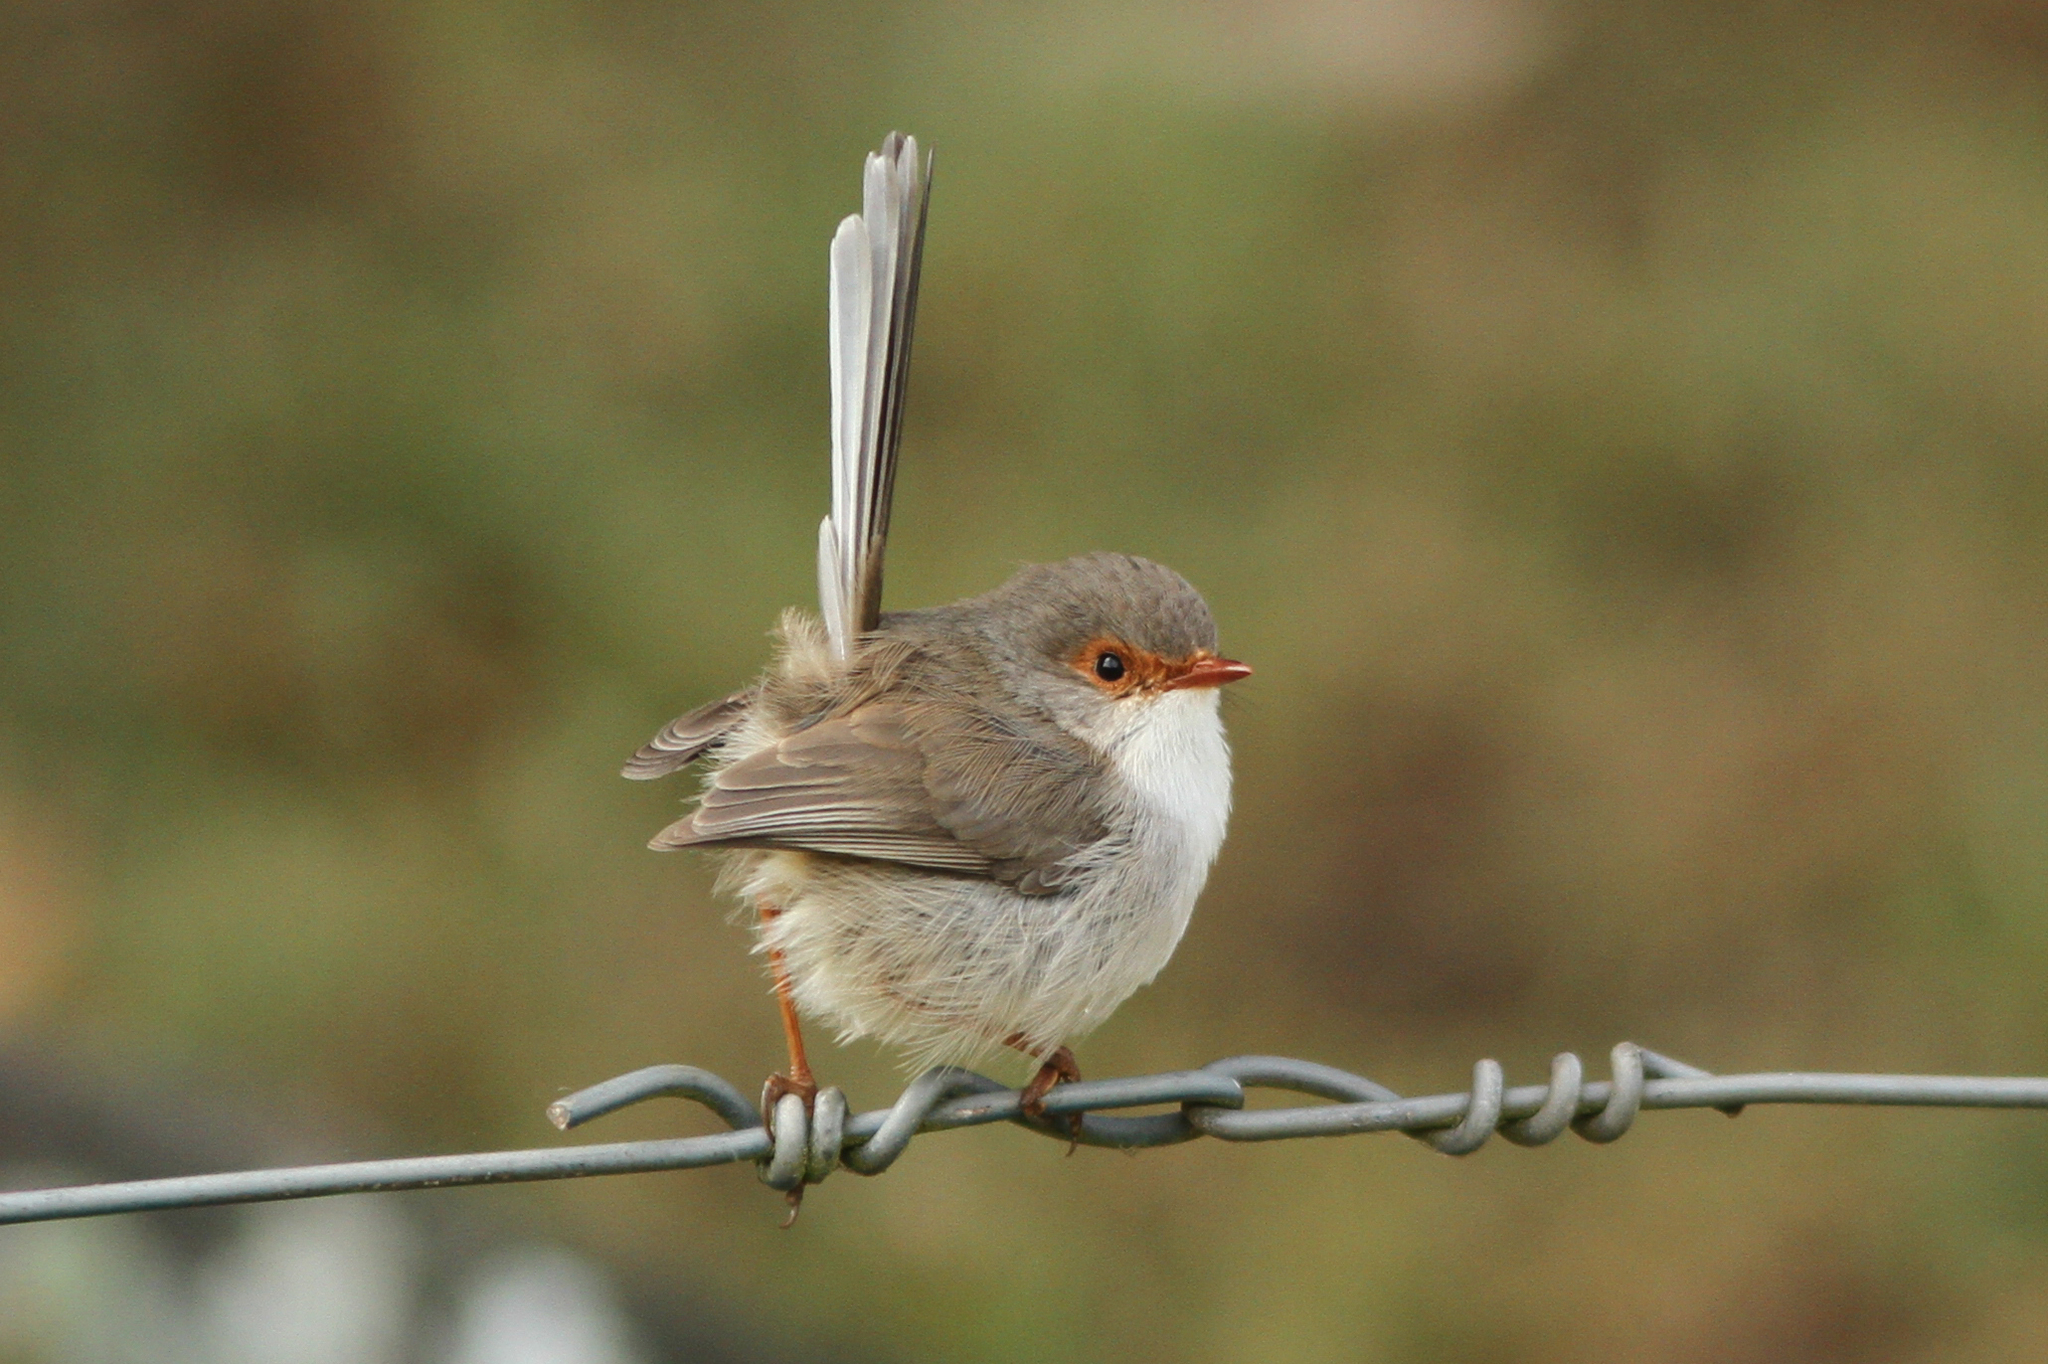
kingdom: Animalia
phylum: Chordata
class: Aves
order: Passeriformes
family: Maluridae
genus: Malurus
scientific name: Malurus cyaneus
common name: Superb fairywren
